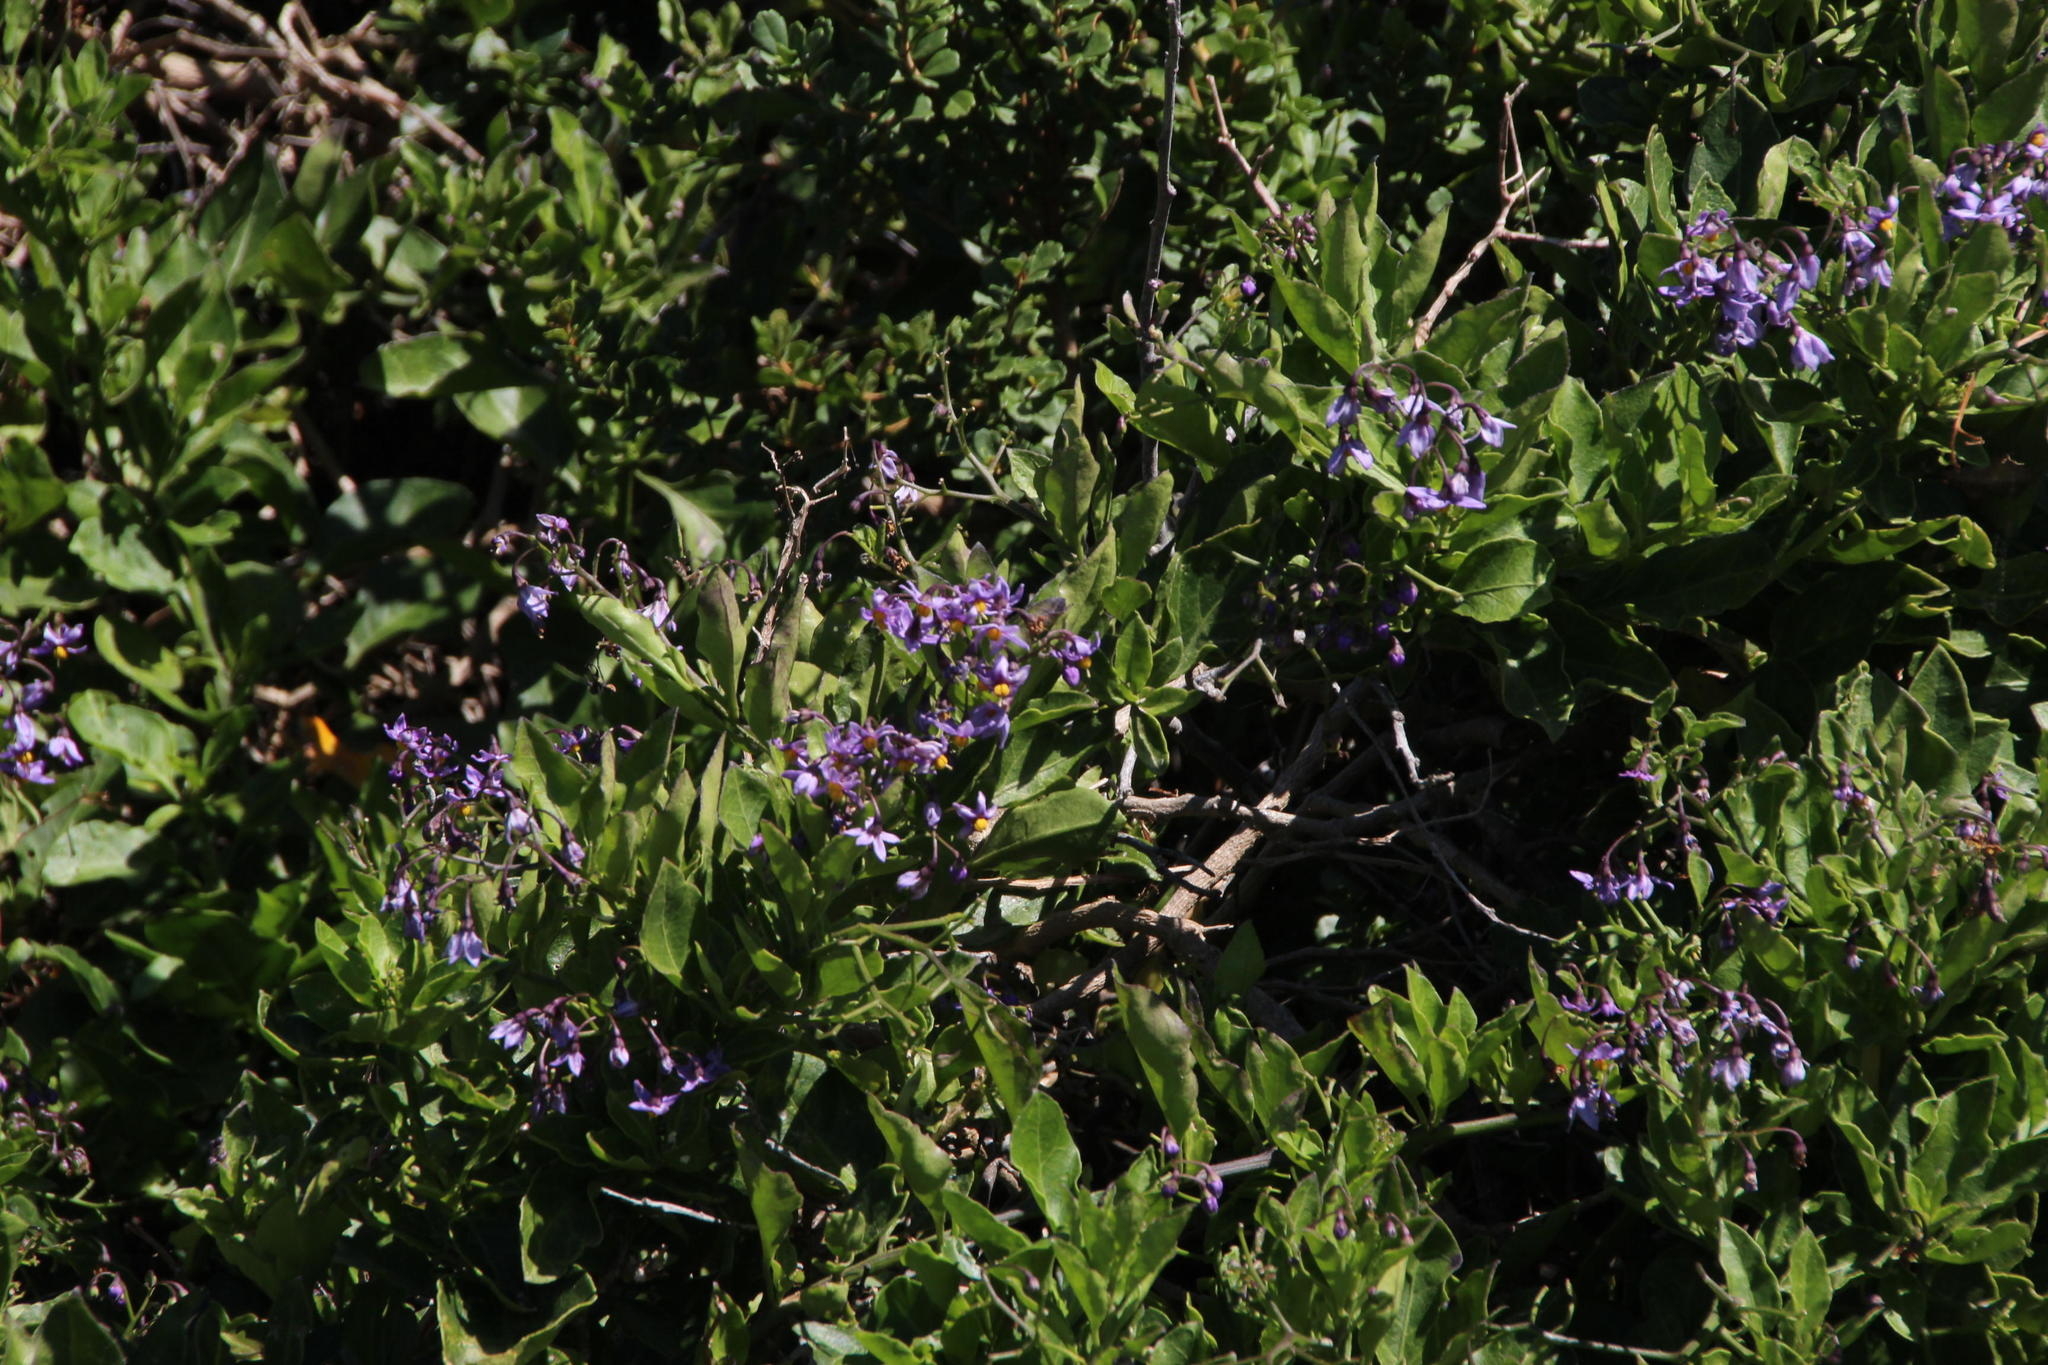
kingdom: Plantae
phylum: Tracheophyta
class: Magnoliopsida
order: Solanales
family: Solanaceae
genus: Solanum
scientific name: Solanum africanum
